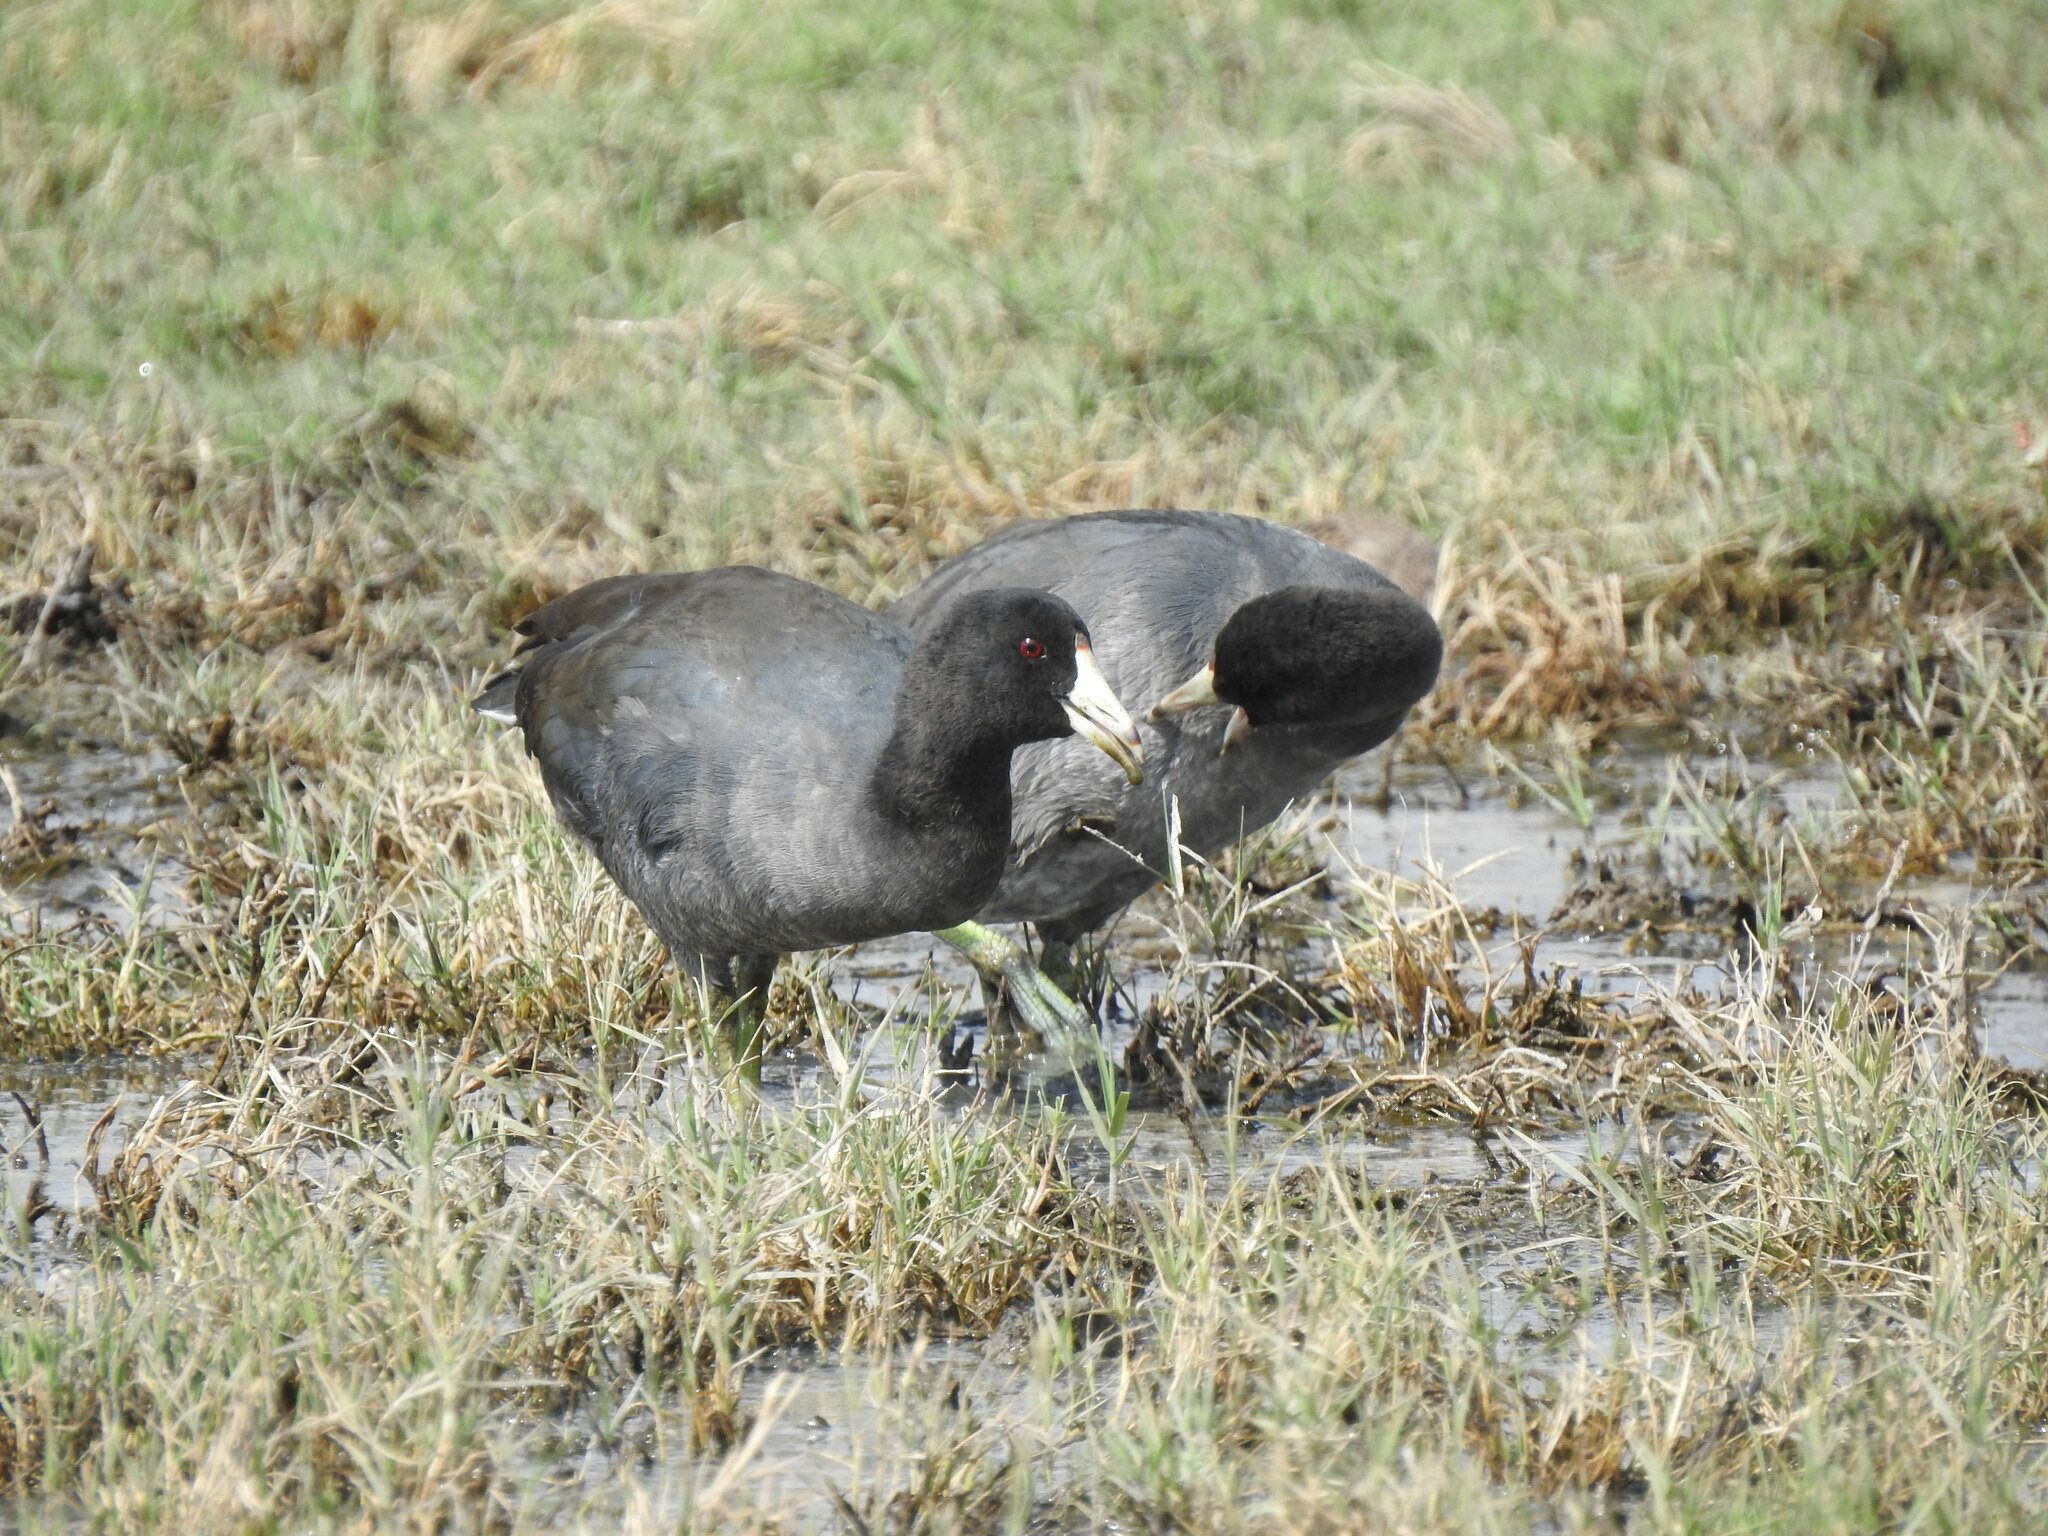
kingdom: Animalia
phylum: Chordata
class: Aves
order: Gruiformes
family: Rallidae
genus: Fulica
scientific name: Fulica americana
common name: American coot
